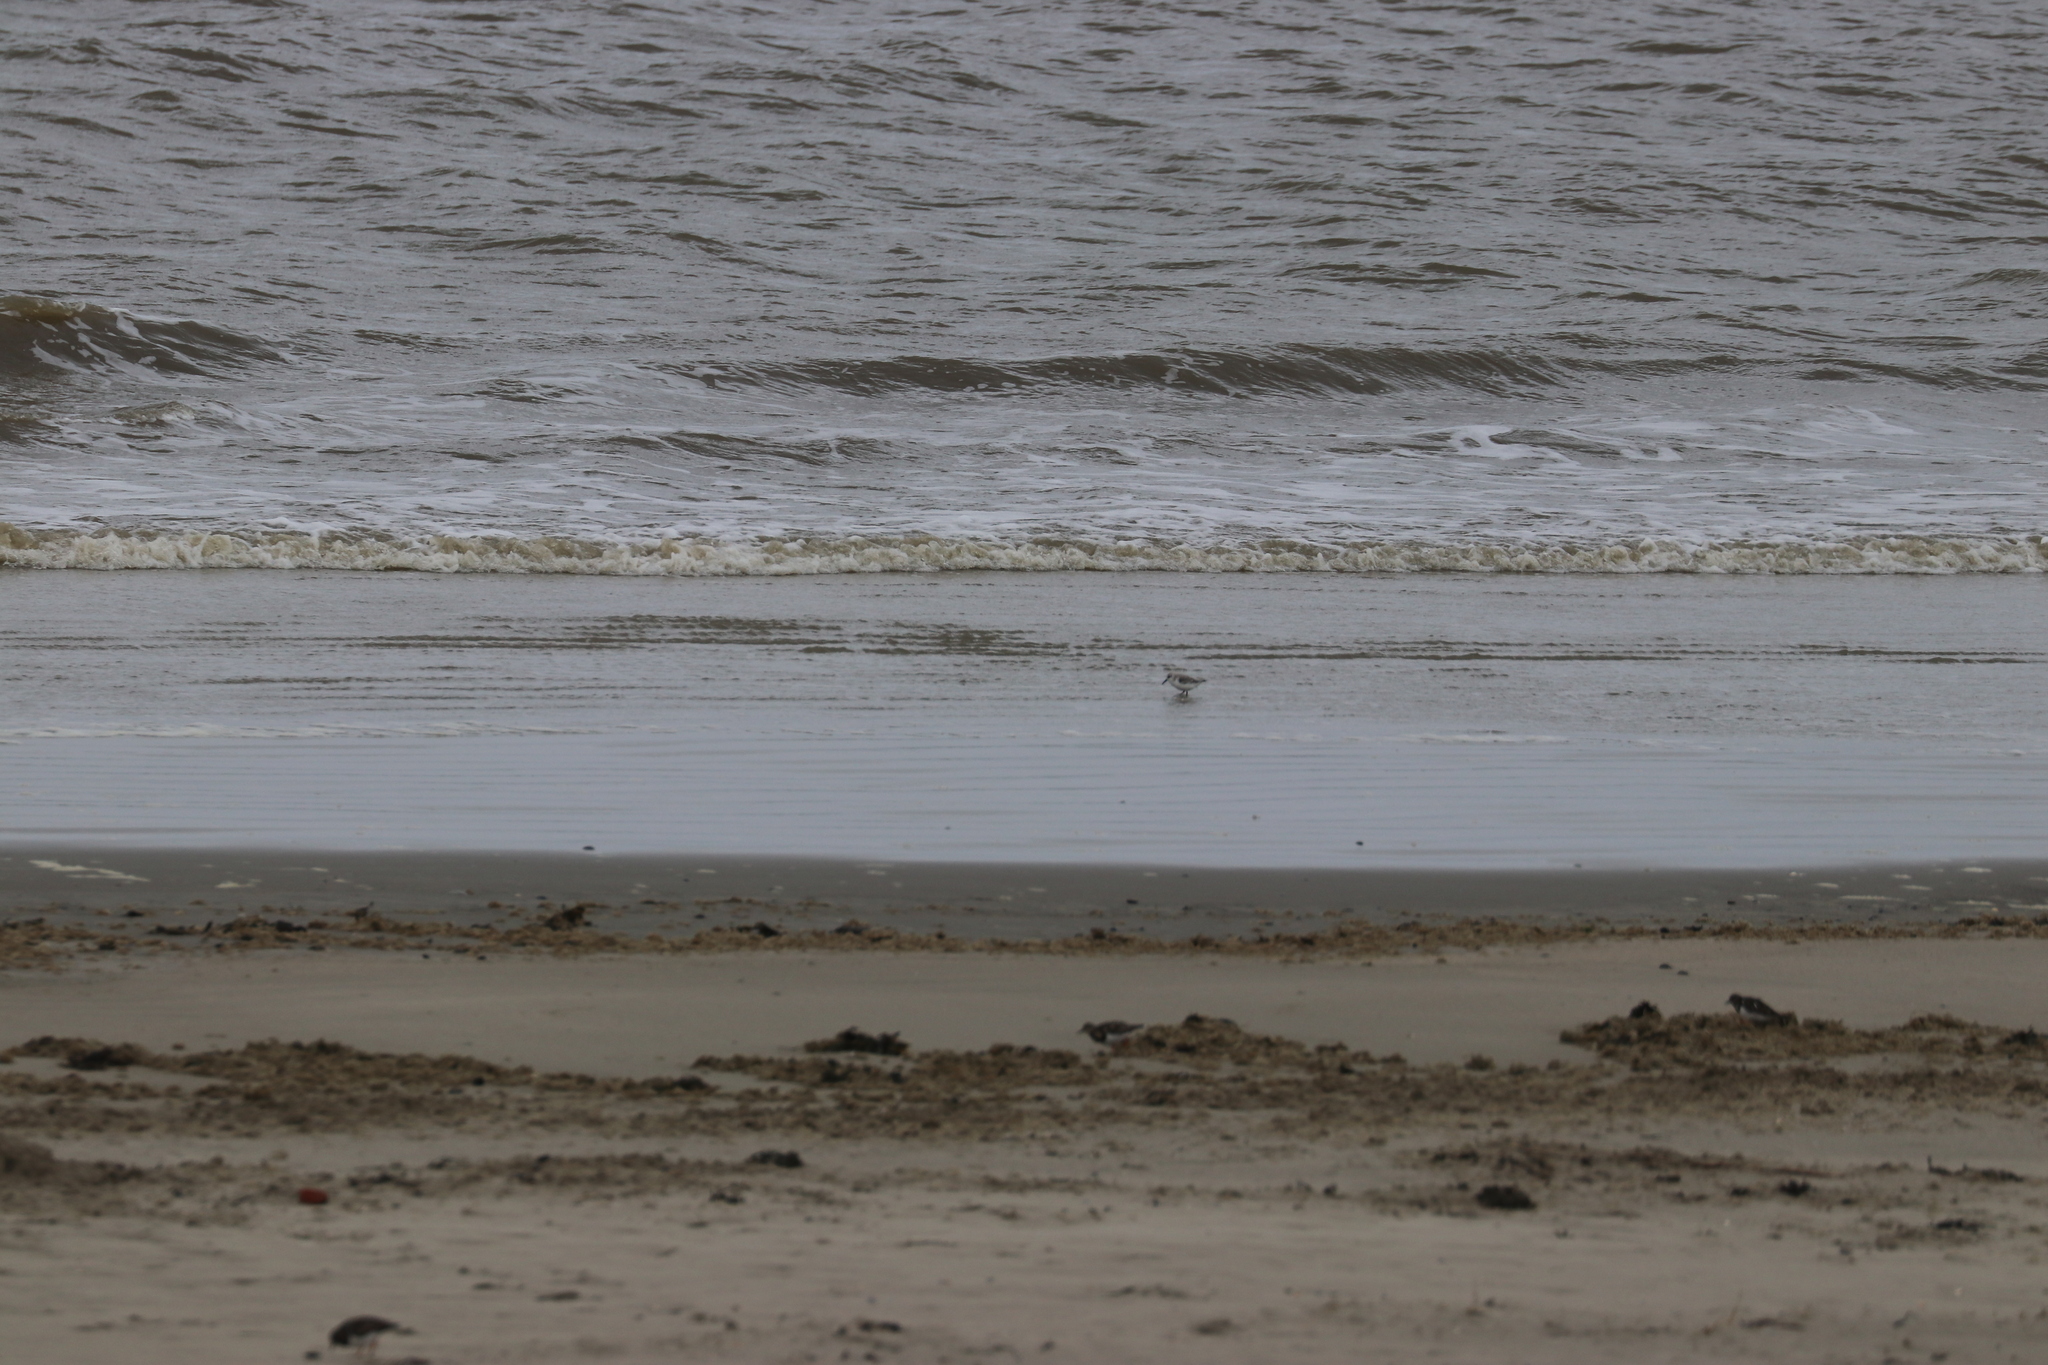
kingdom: Animalia
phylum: Chordata
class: Aves
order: Charadriiformes
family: Scolopacidae
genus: Calidris
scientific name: Calidris alba
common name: Sanderling
